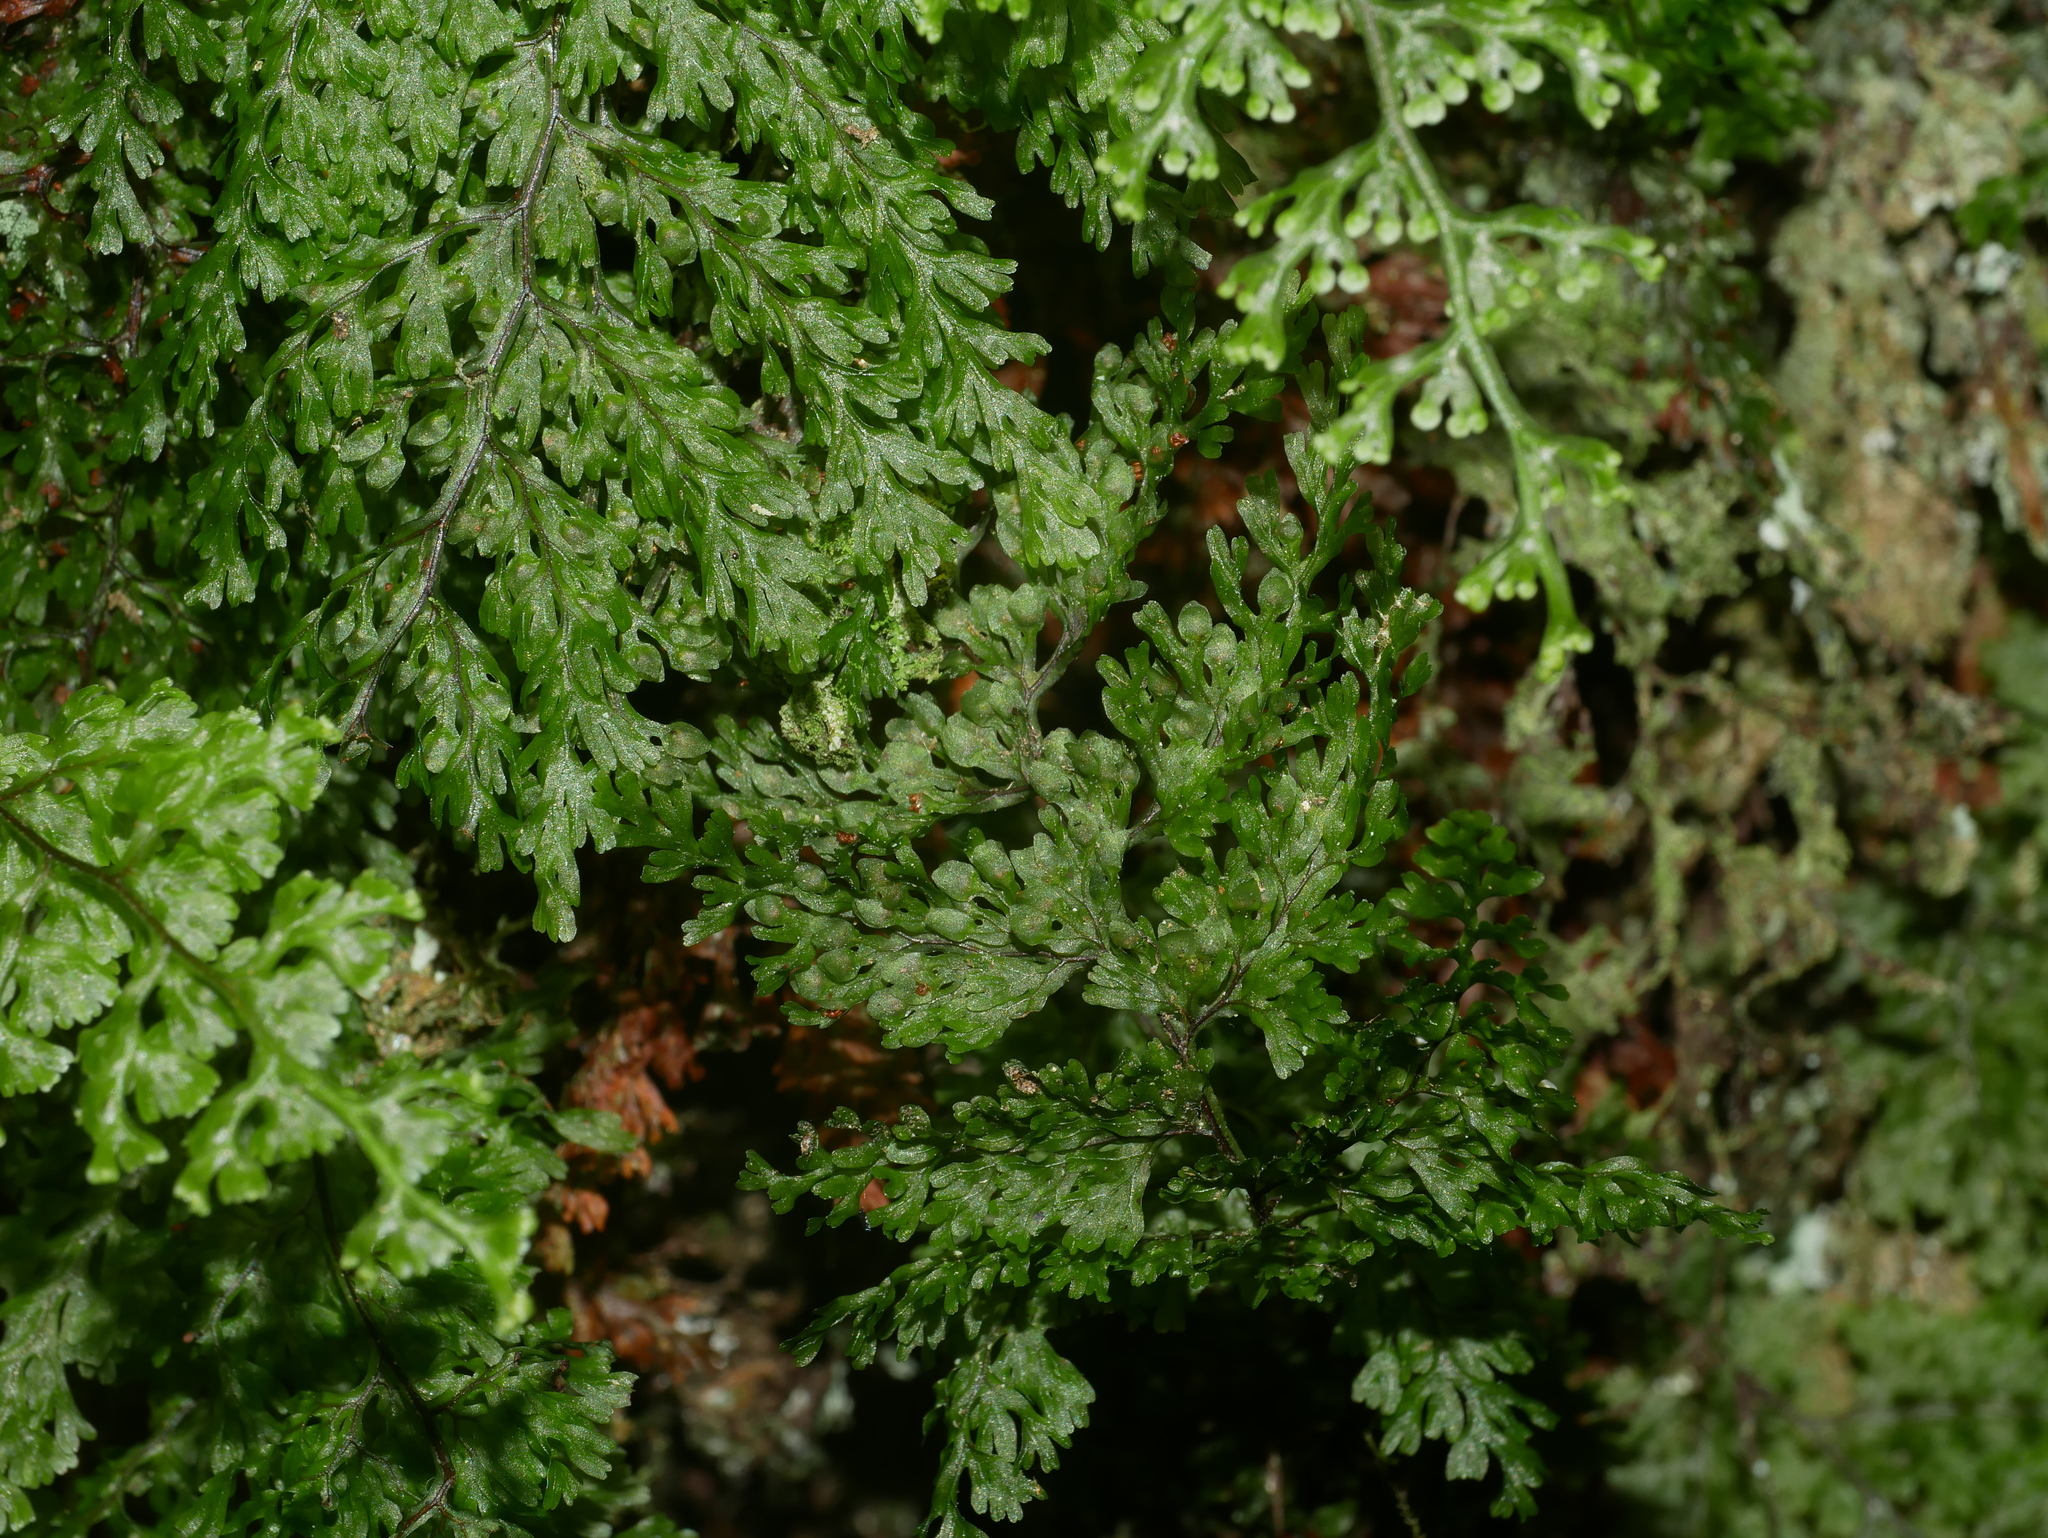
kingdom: Plantae
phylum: Tracheophyta
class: Polypodiopsida
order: Hymenophyllales
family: Hymenophyllaceae
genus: Callistopteris
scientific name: Callistopteris polyantha
